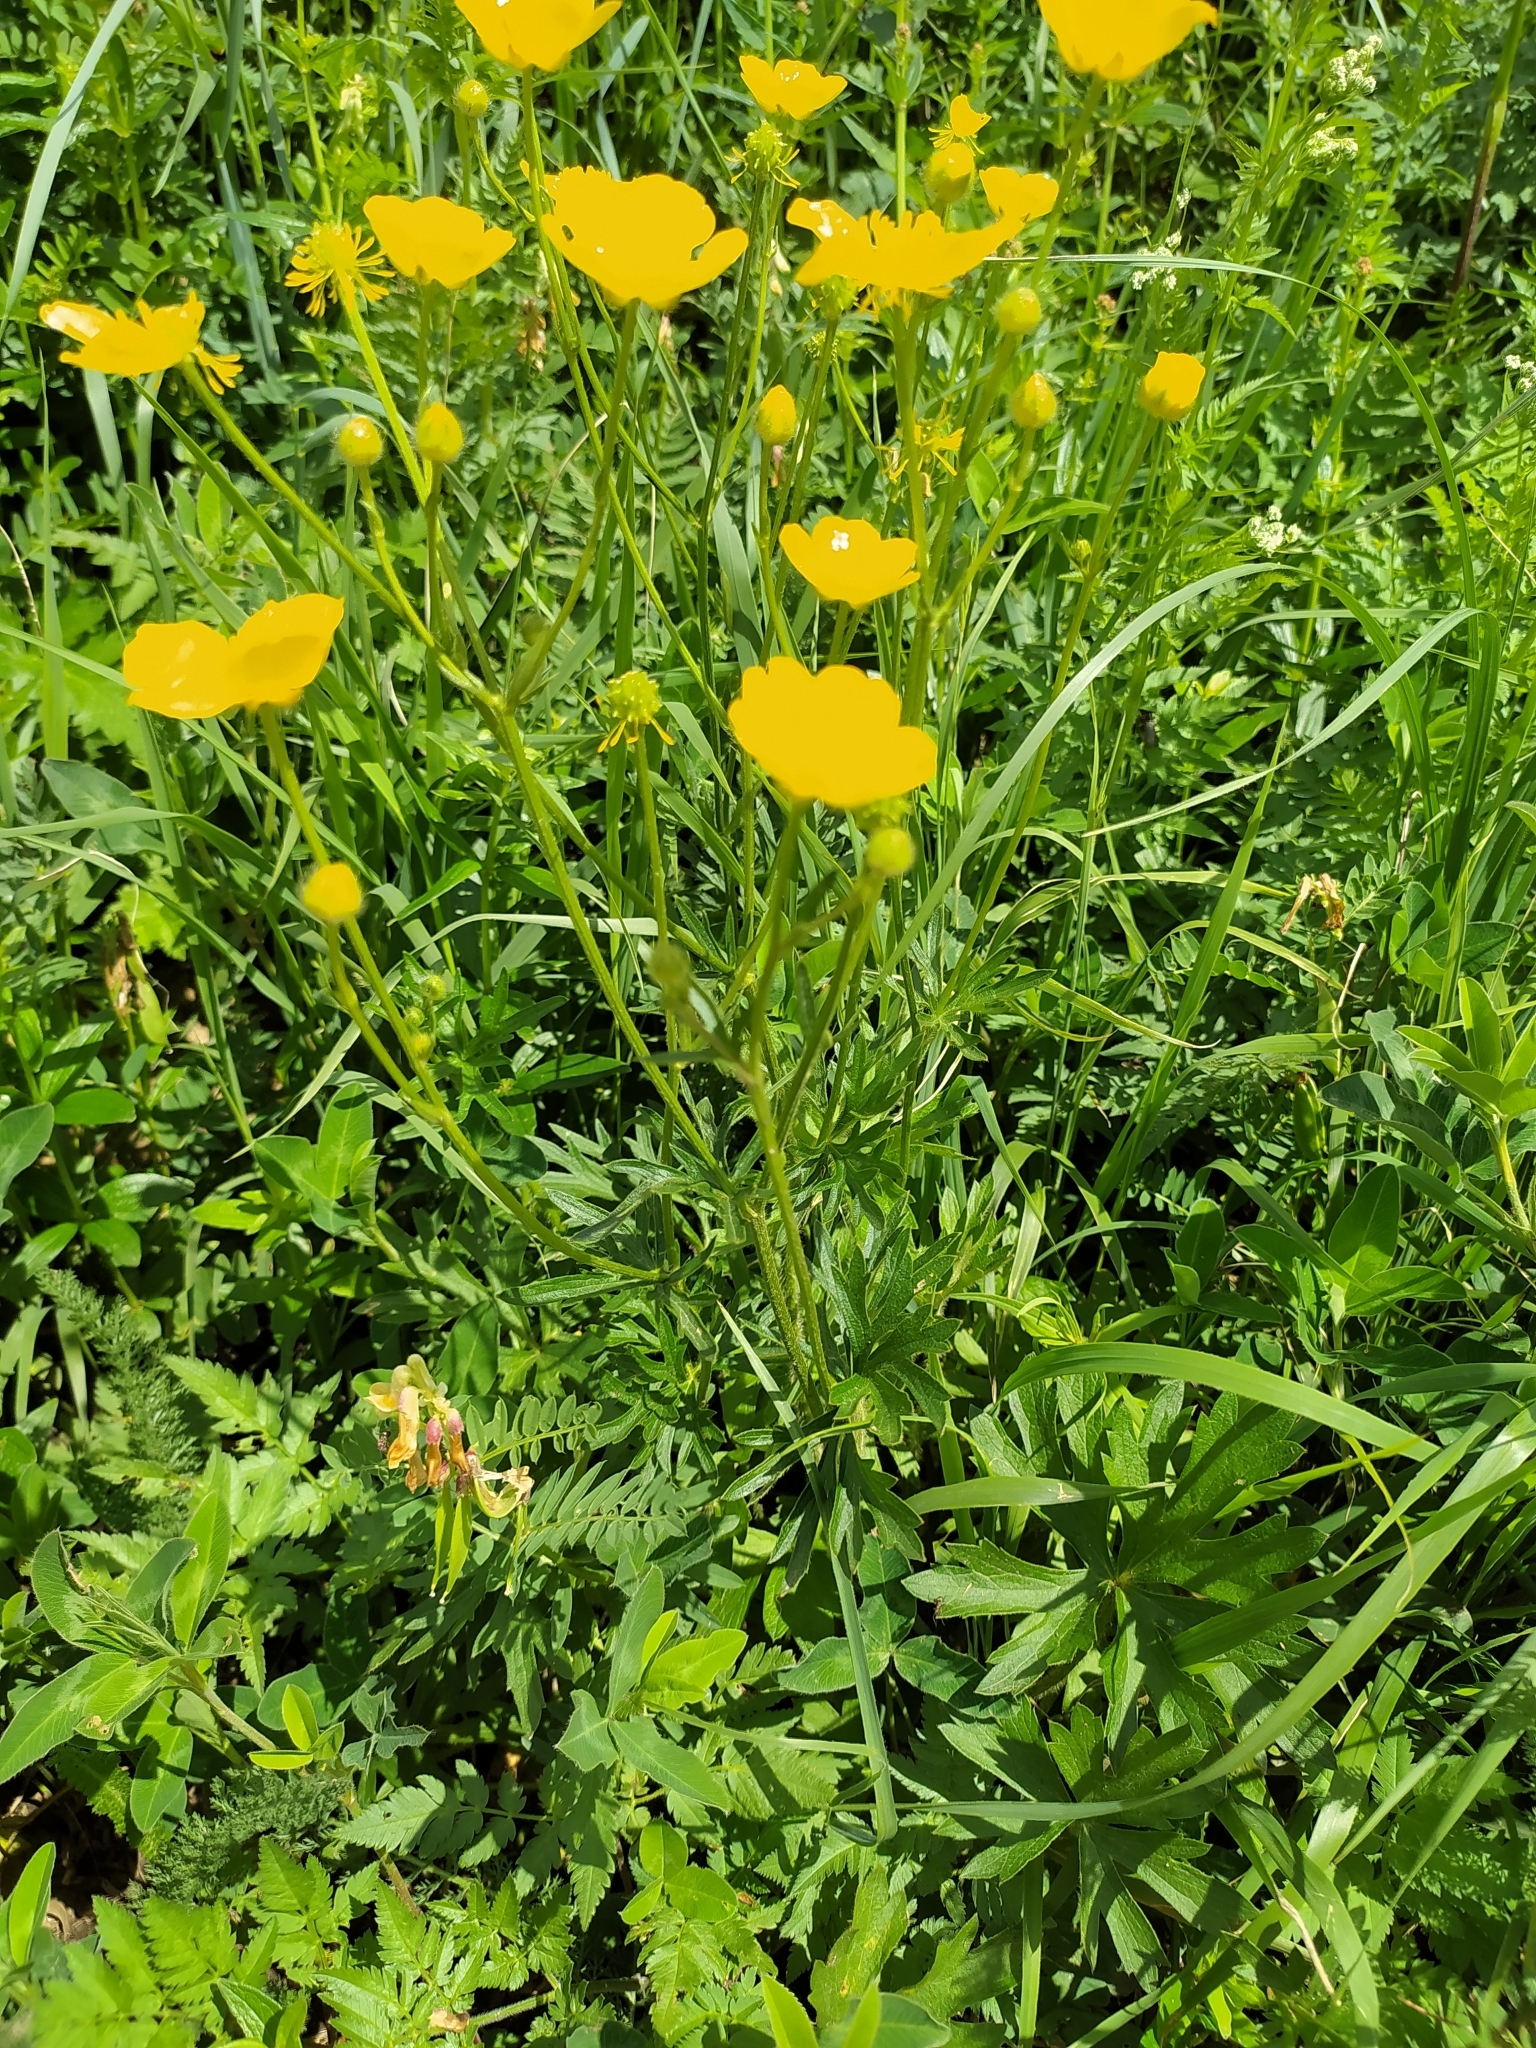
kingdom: Plantae
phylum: Tracheophyta
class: Magnoliopsida
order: Ranunculales
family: Ranunculaceae
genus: Ranunculus
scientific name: Ranunculus polyanthemos
